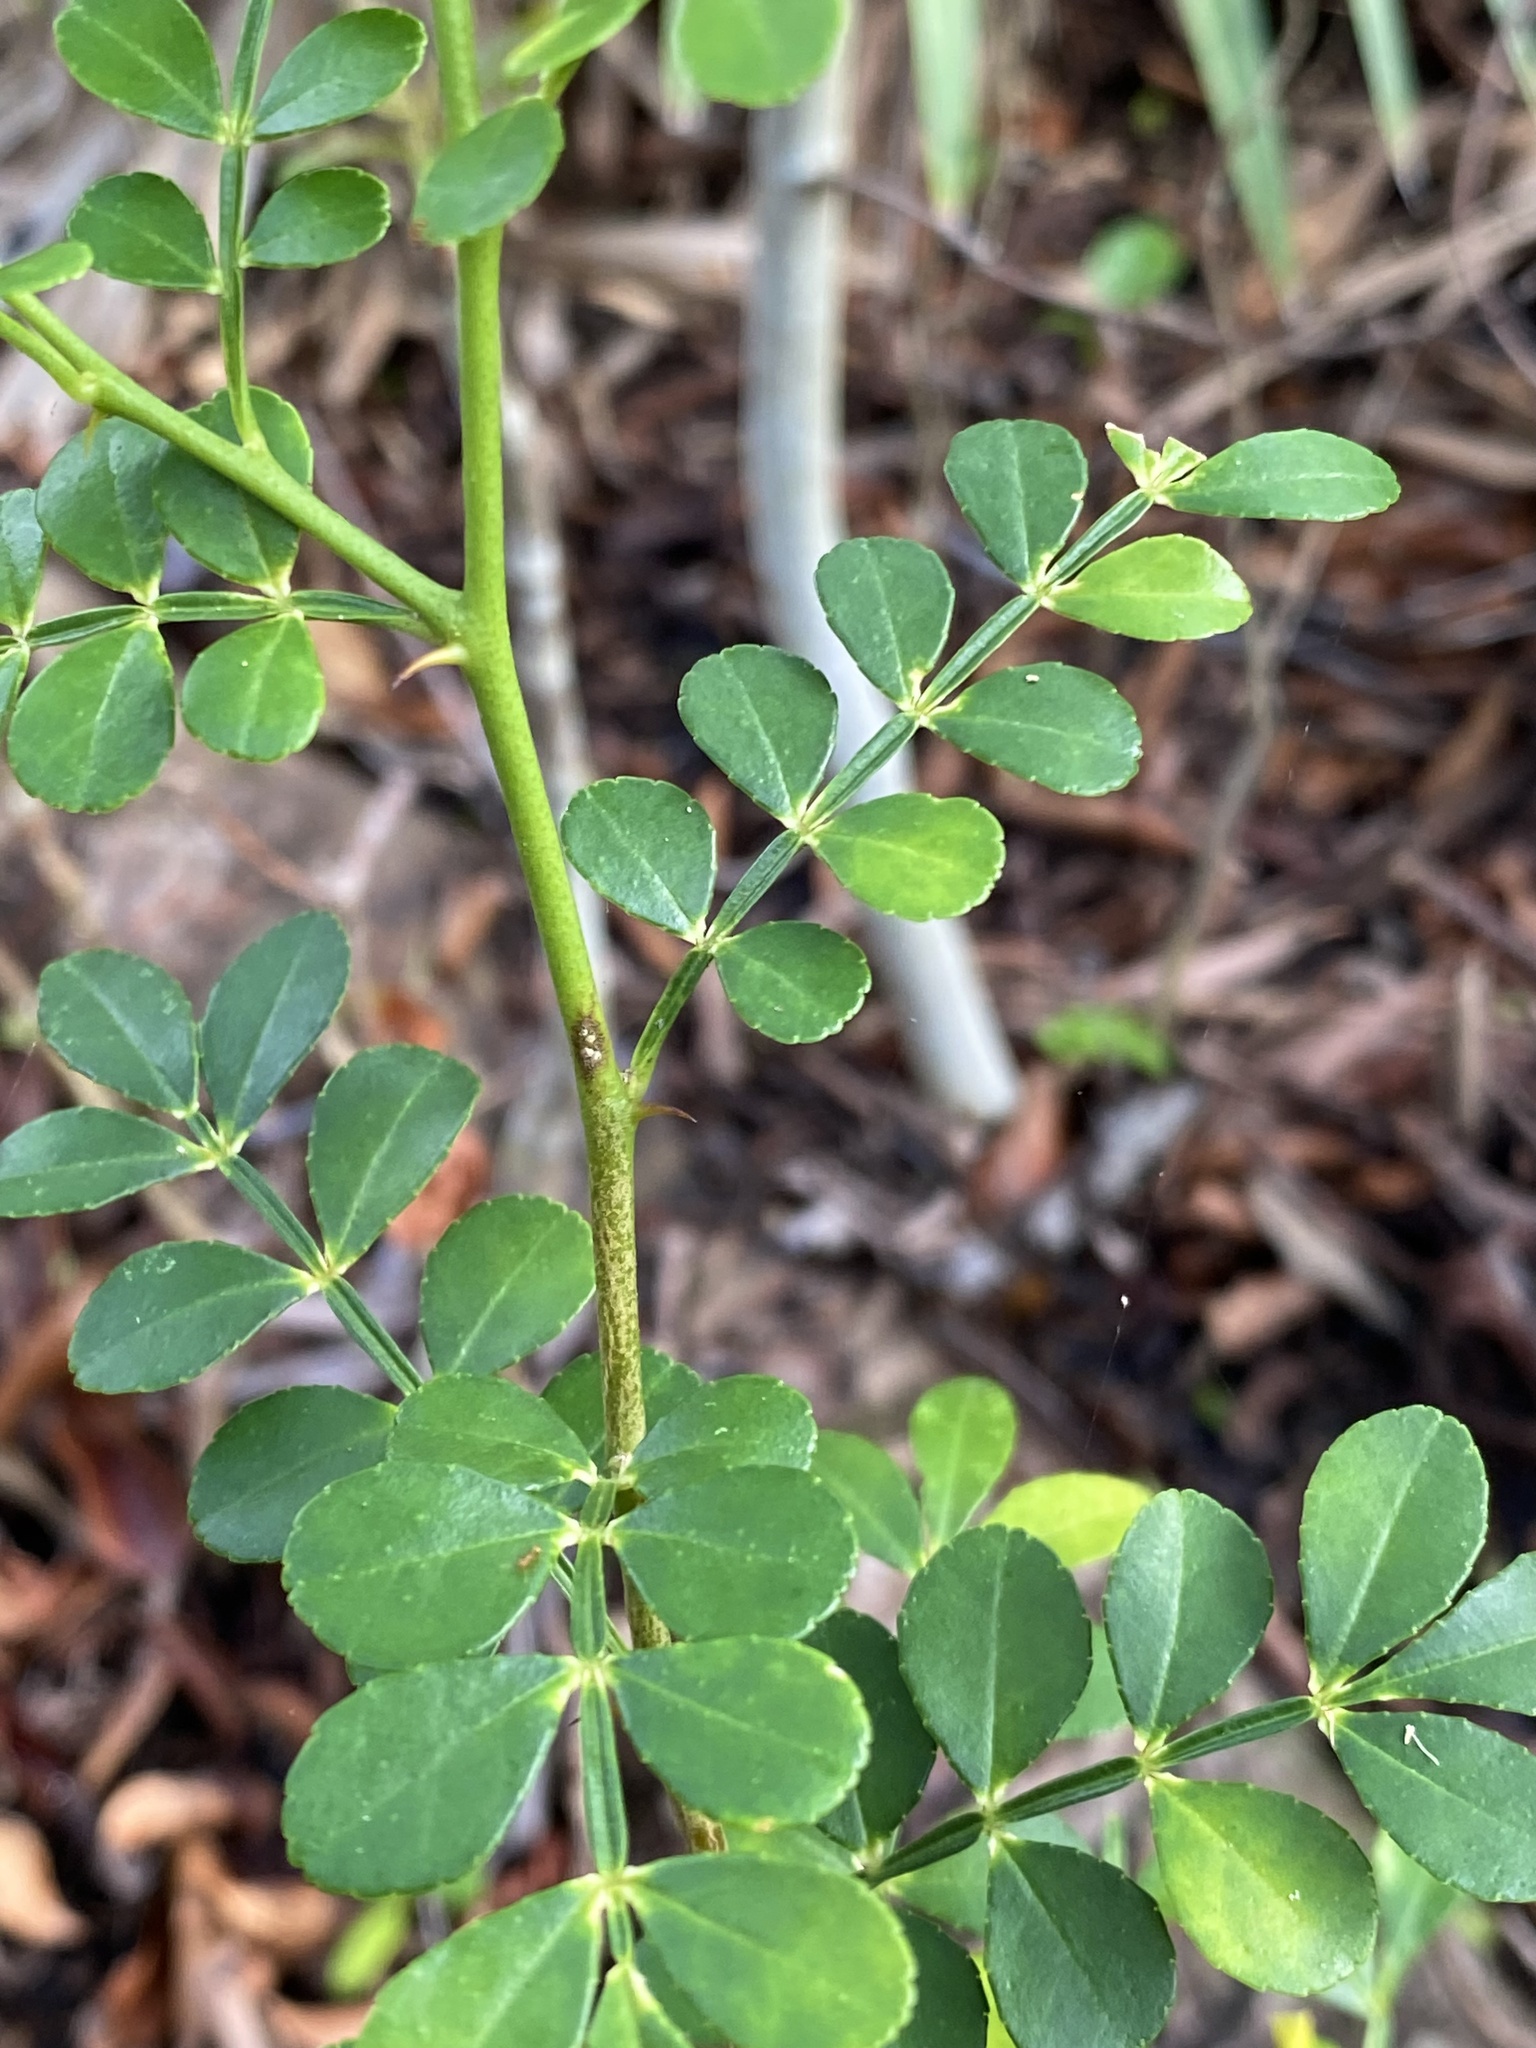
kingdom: Plantae
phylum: Tracheophyta
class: Magnoliopsida
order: Sapindales
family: Rutaceae
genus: Zanthoxylum
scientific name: Zanthoxylum fagara
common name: Lime prickly-ash
